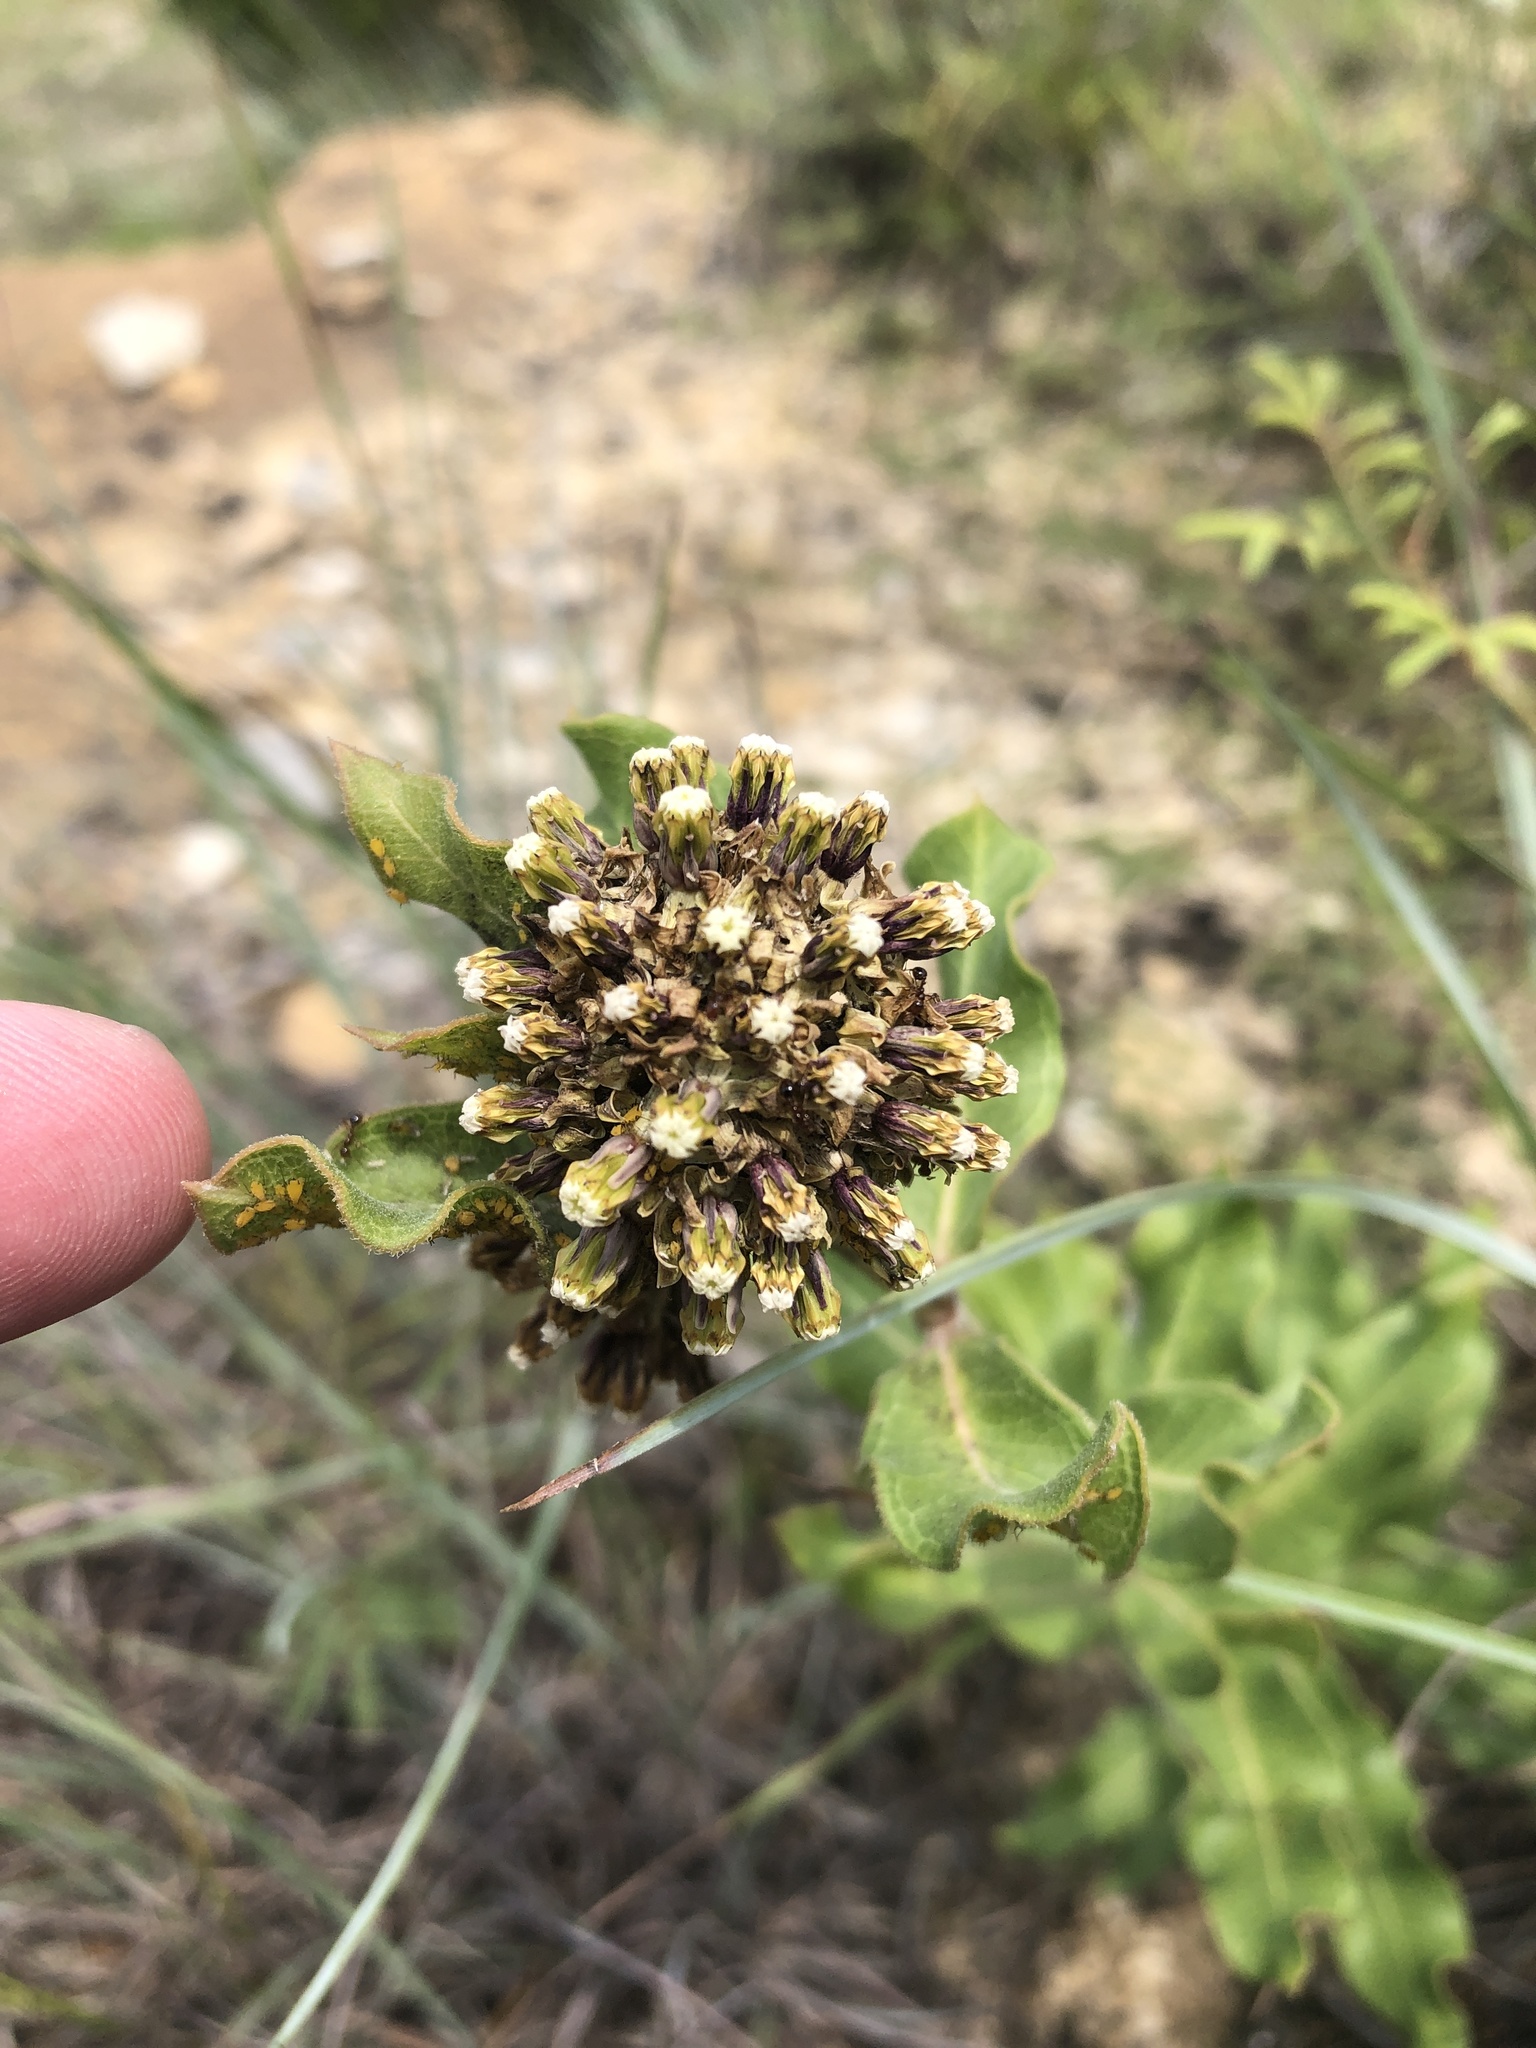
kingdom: Plantae
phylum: Tracheophyta
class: Magnoliopsida
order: Gentianales
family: Apocynaceae
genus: Asclepias
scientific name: Asclepias viridiflora
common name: Green comet milkweed
